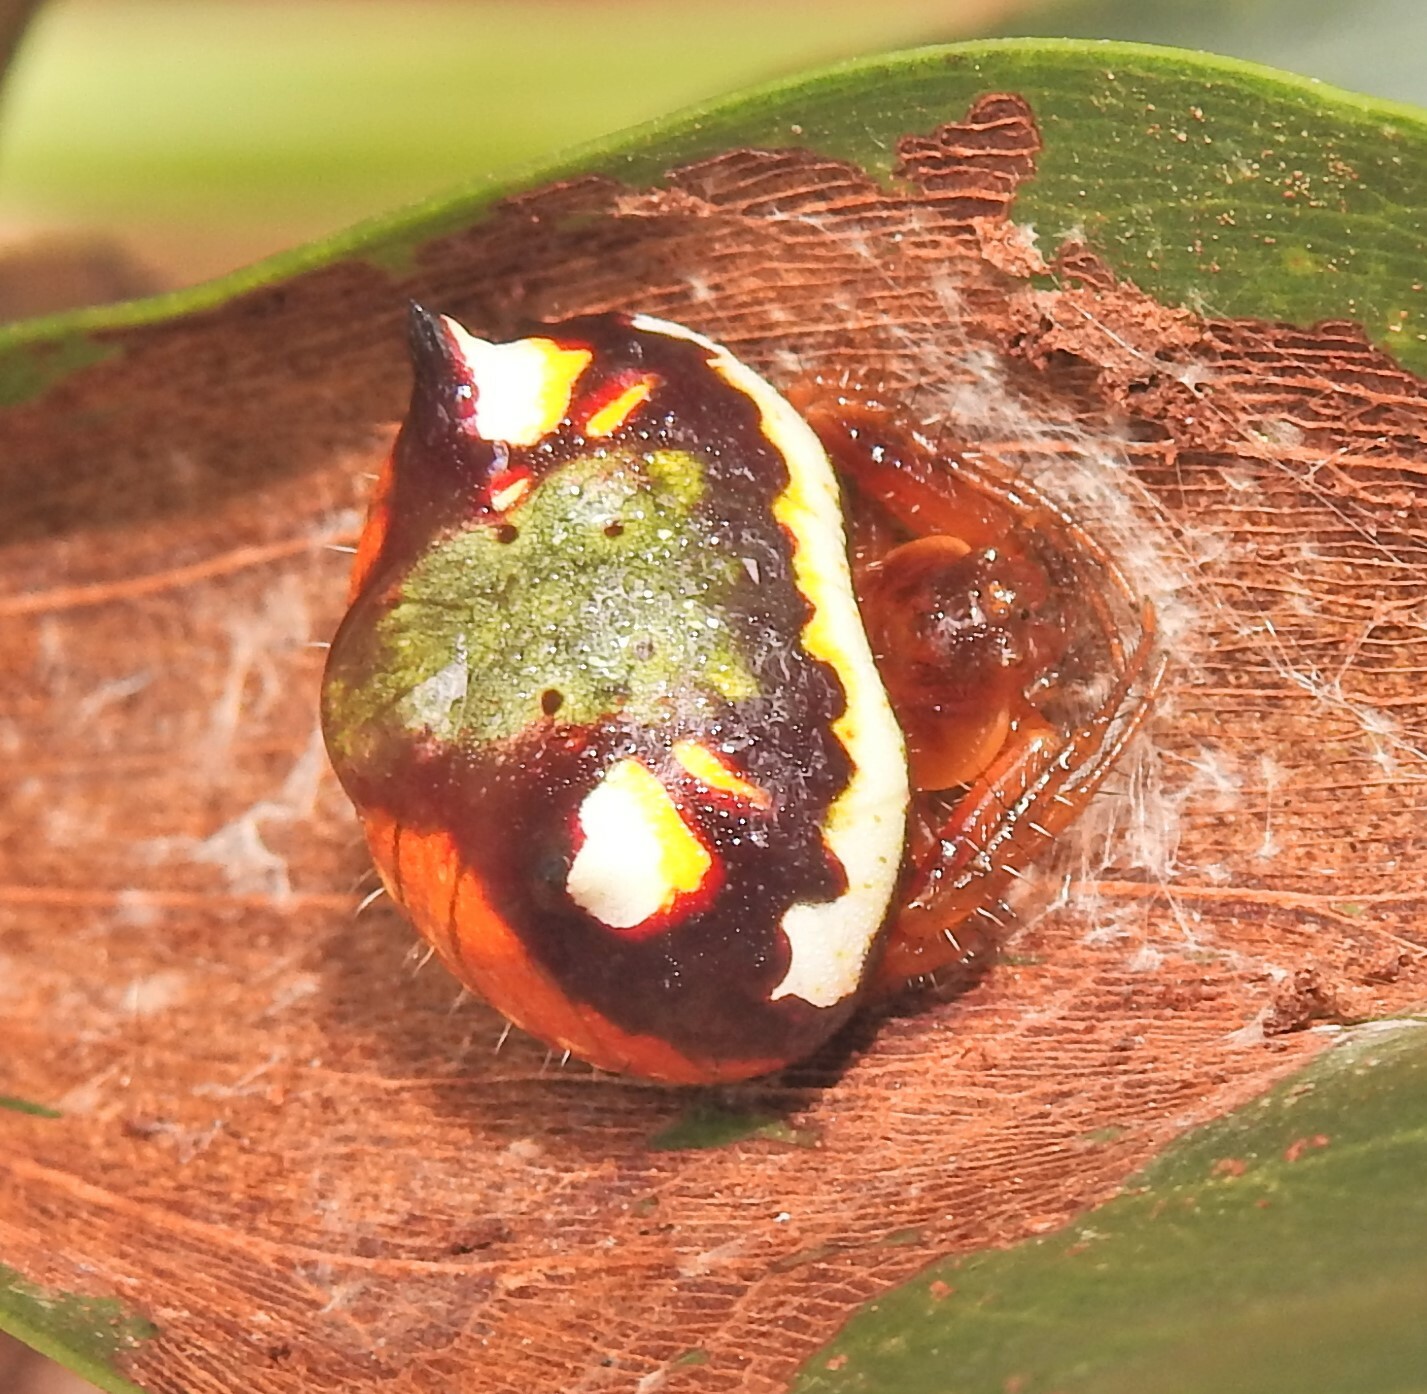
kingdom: Animalia
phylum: Arthropoda
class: Arachnida
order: Araneae
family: Araneidae
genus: Poecilopachys
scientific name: Poecilopachys australasia
